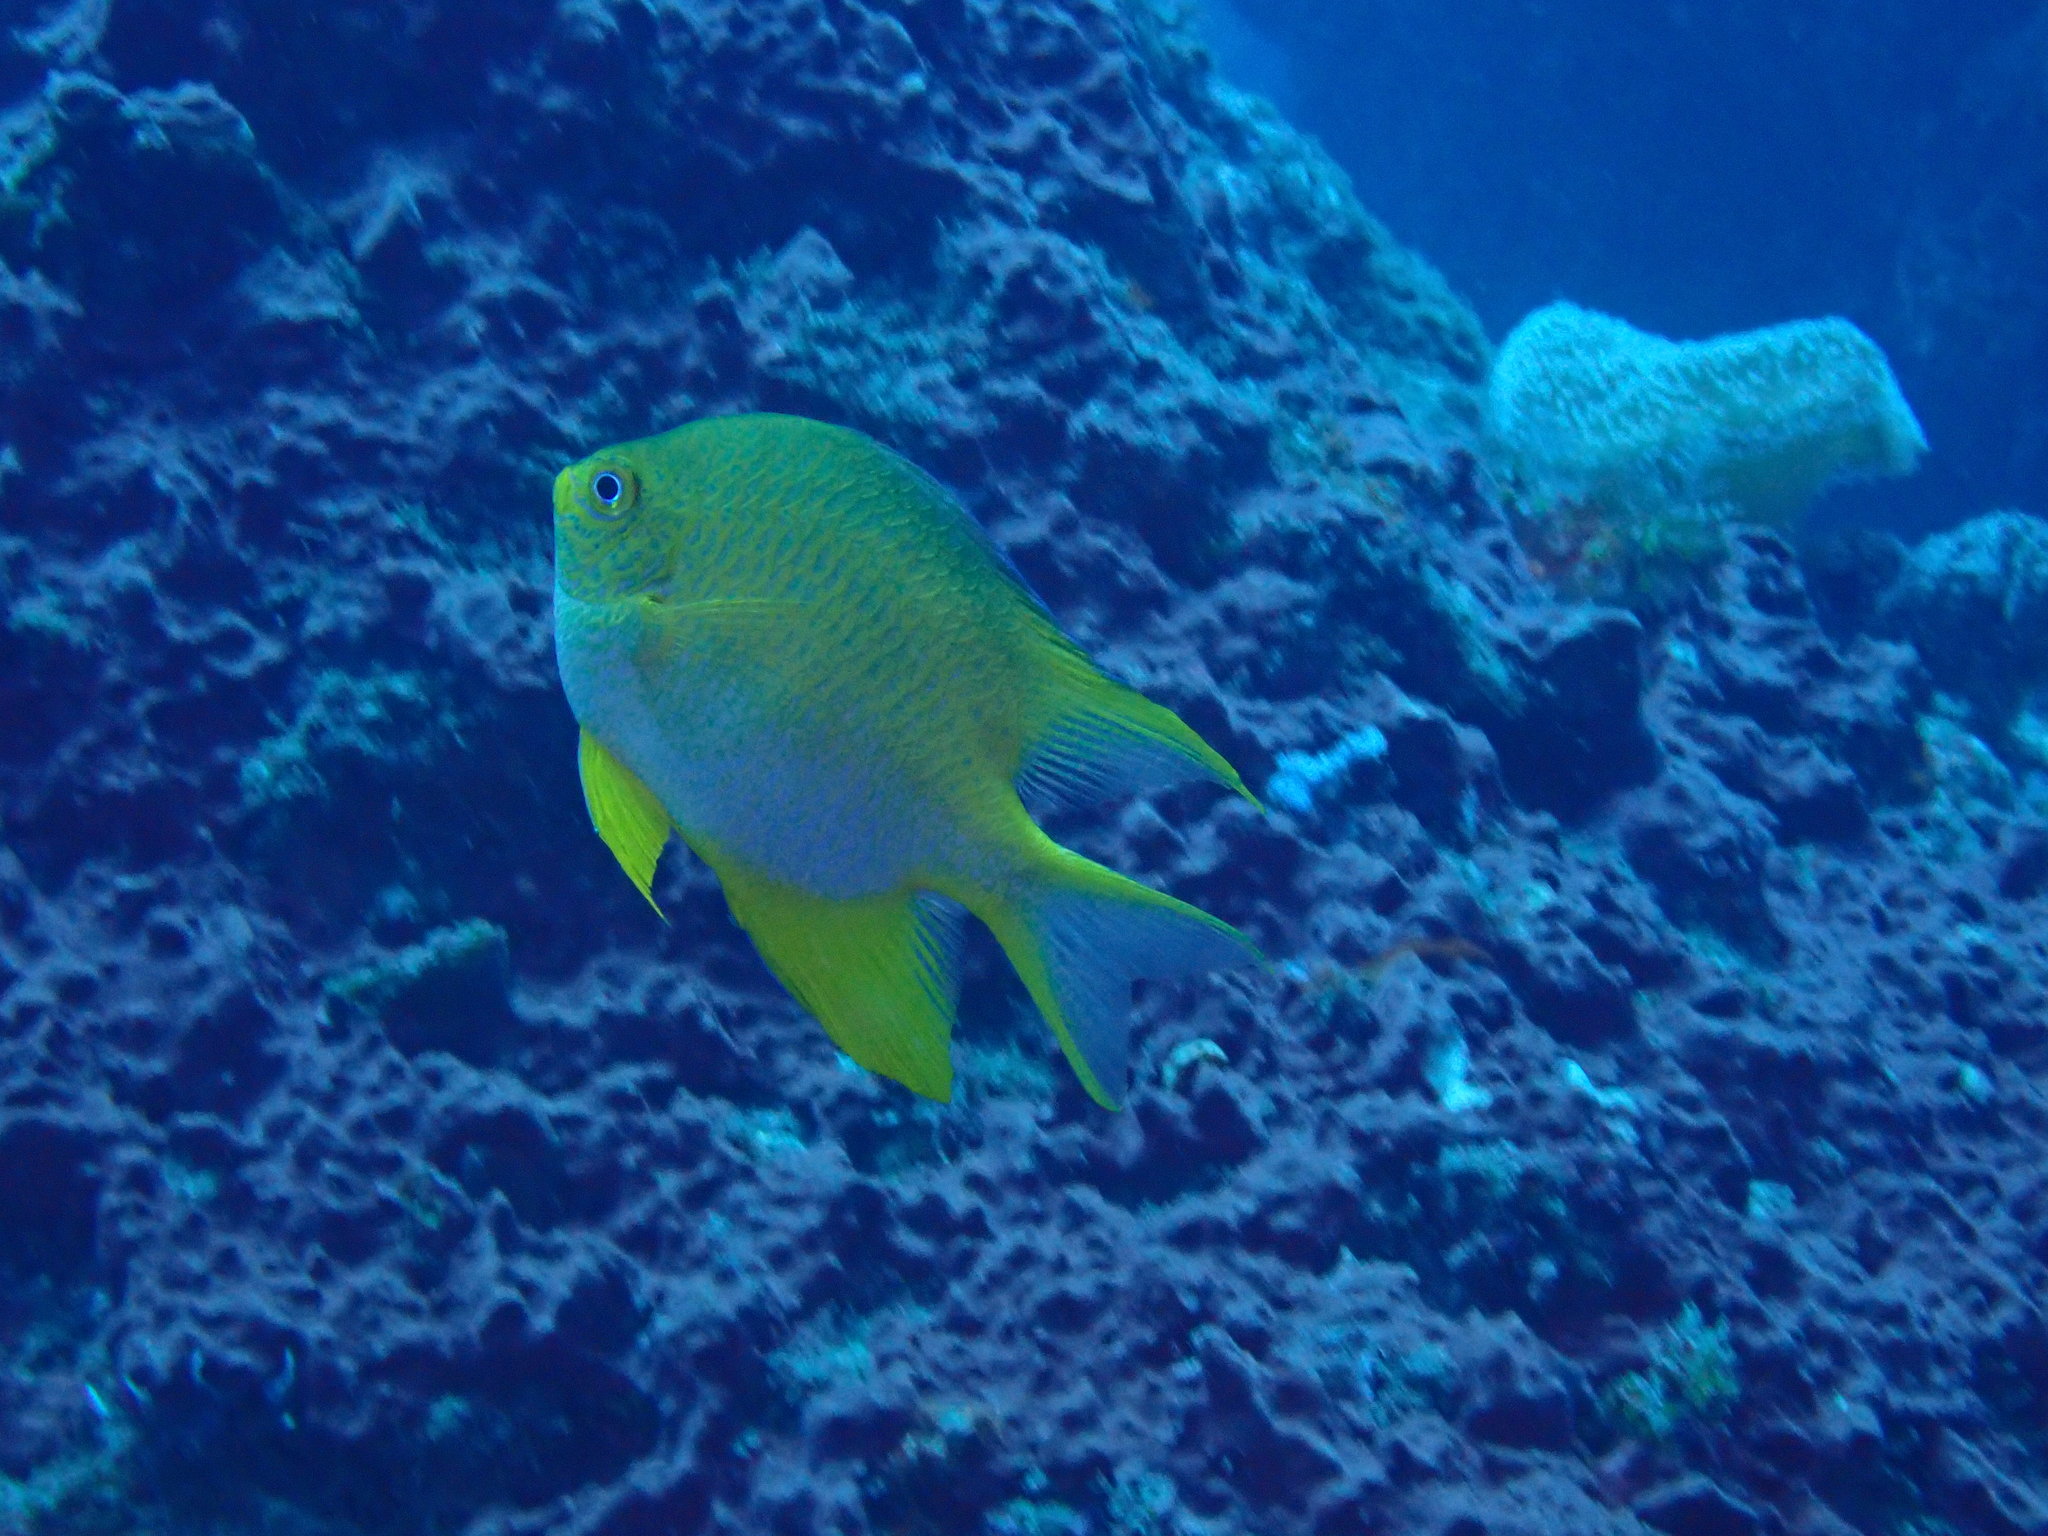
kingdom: Animalia
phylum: Chordata
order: Perciformes
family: Pomacentridae
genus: Amblyglyphidodon
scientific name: Amblyglyphidodon aureus
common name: Golden damsel
